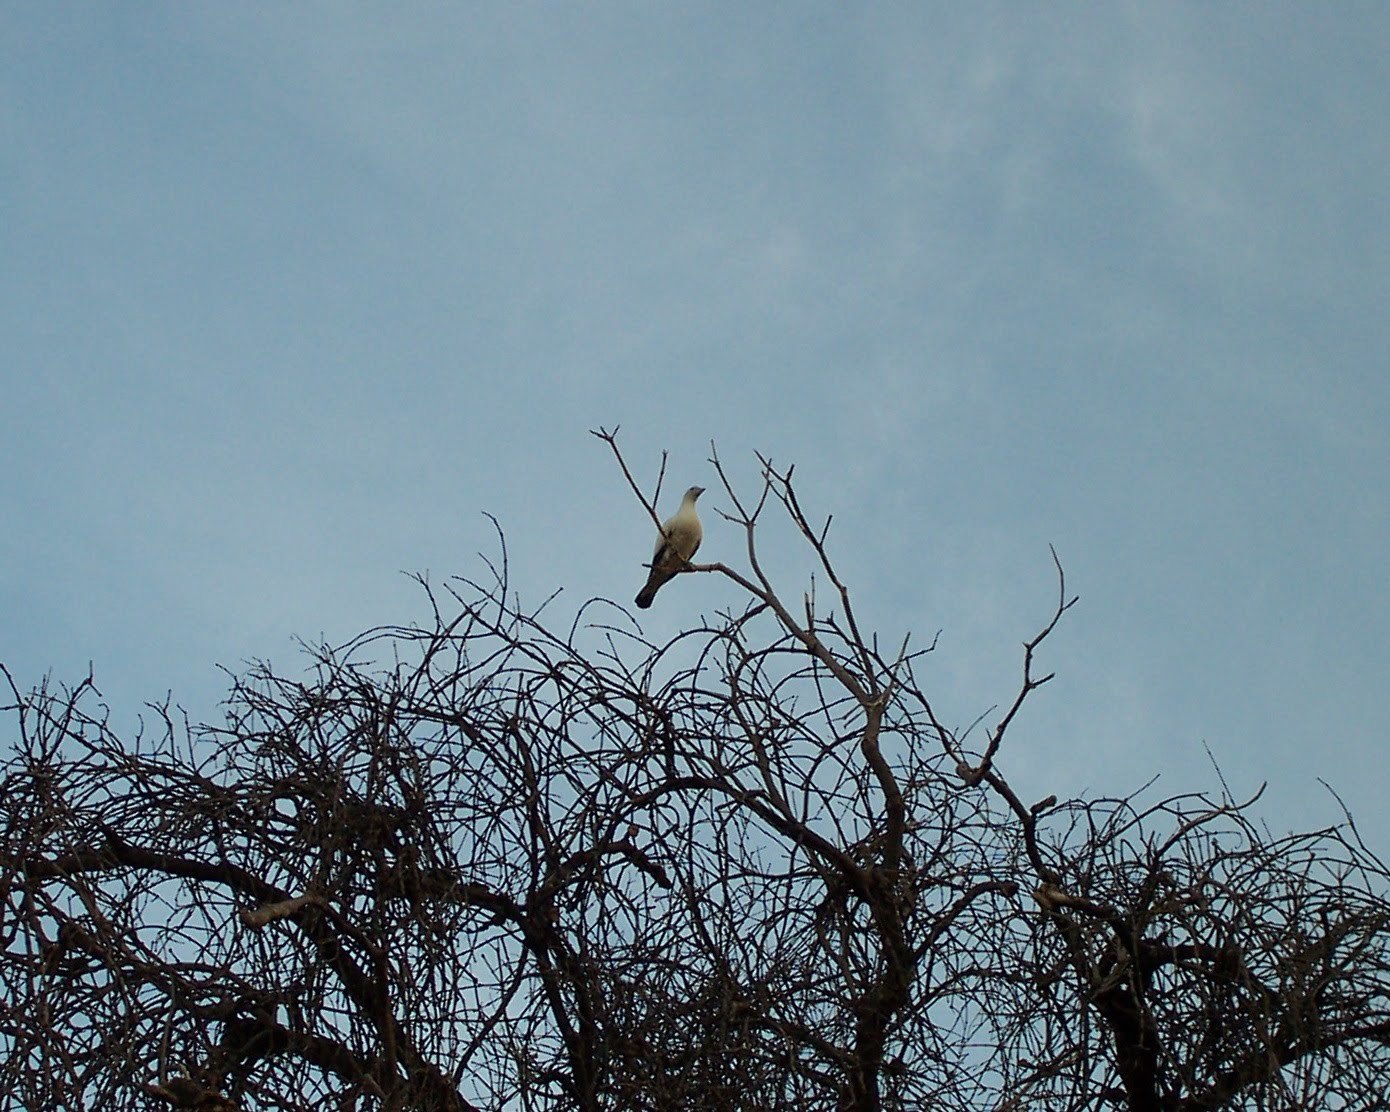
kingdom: Animalia
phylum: Chordata
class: Aves
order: Columbiformes
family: Columbidae
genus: Ducula
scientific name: Ducula spilorrhoa
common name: Torresian imperial pigeon
